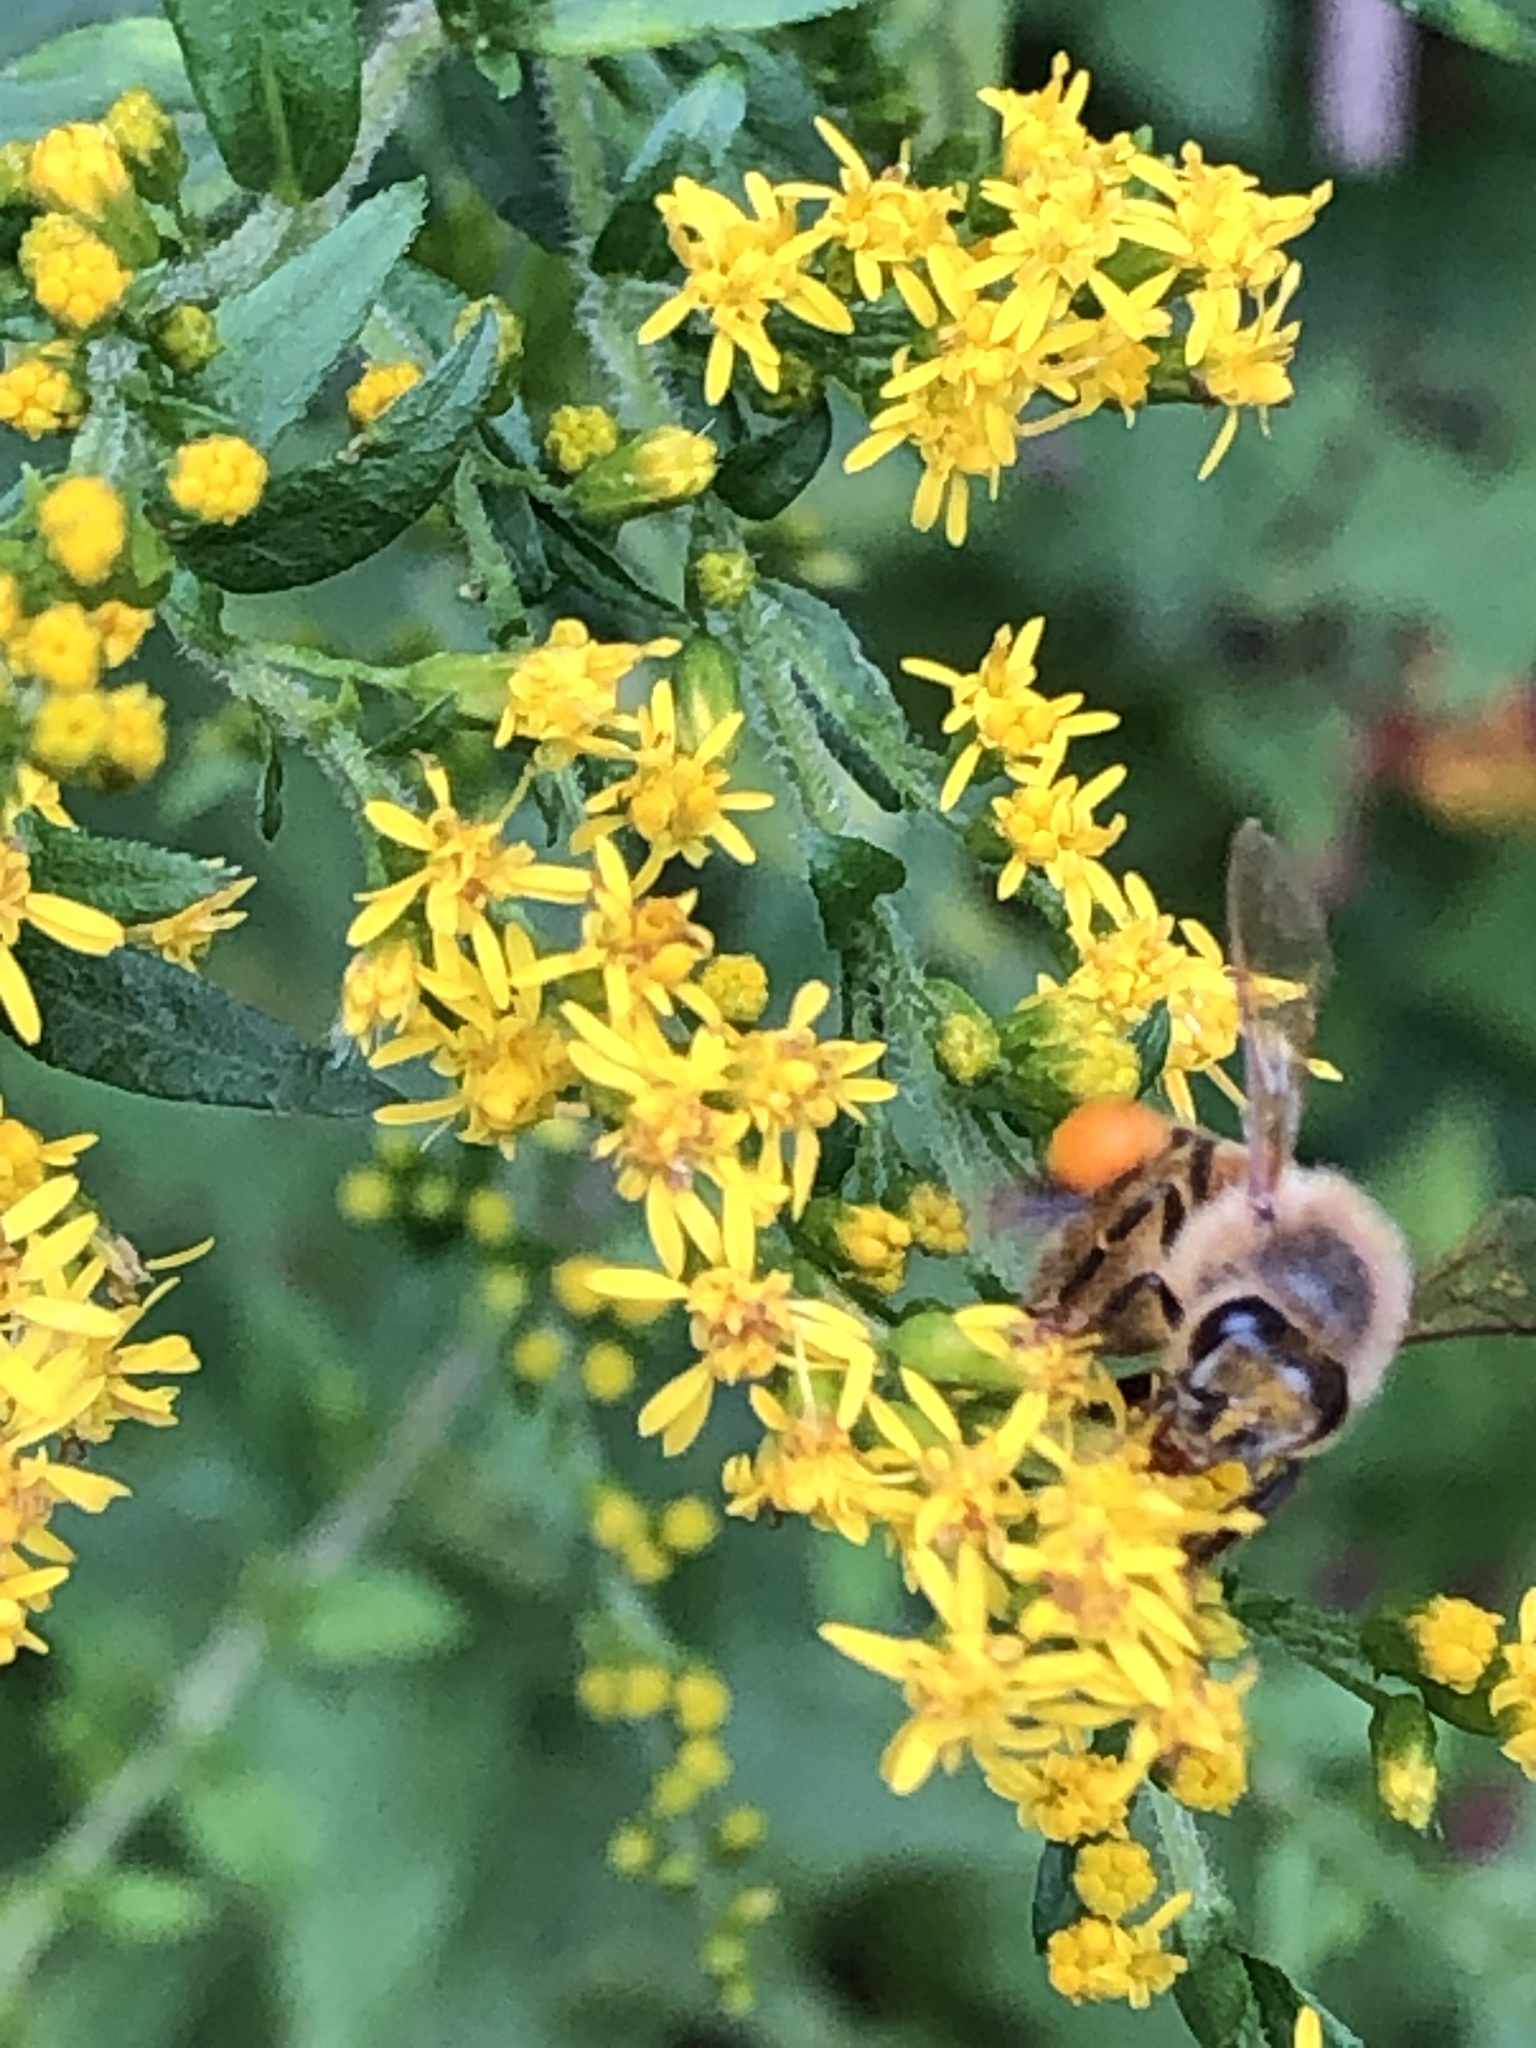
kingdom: Animalia
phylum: Arthropoda
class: Insecta
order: Hymenoptera
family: Apidae
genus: Apis
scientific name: Apis mellifera
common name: Honey bee
